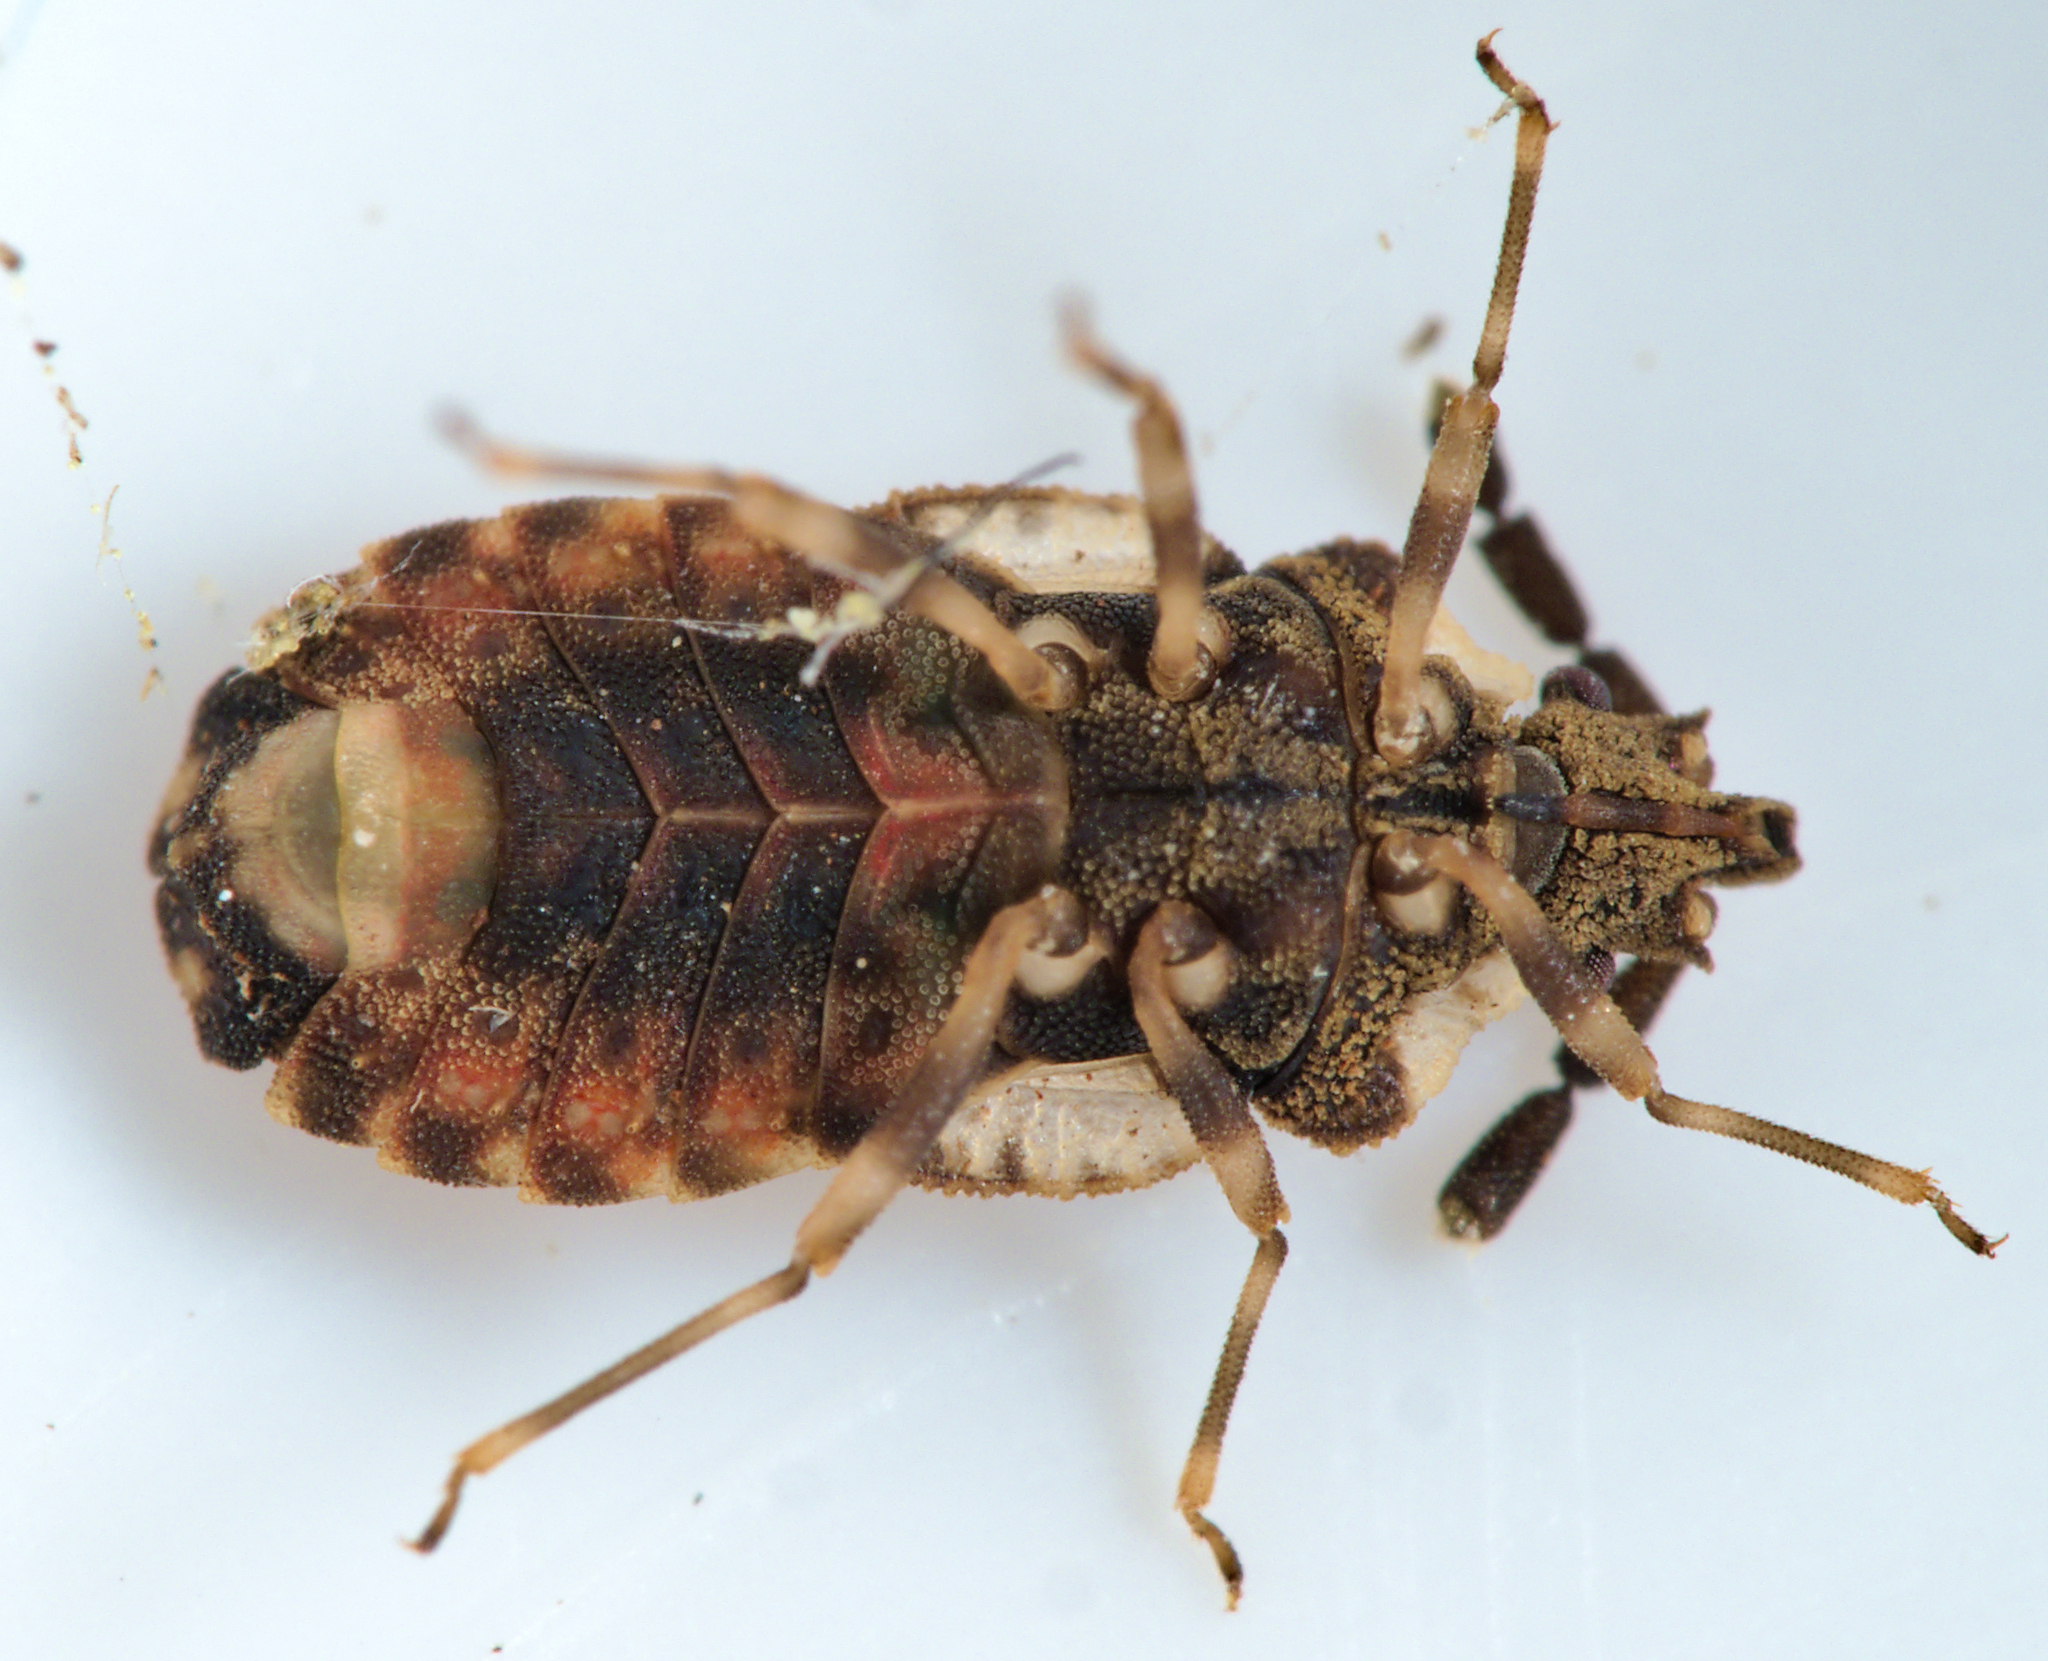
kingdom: Animalia
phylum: Arthropoda
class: Insecta
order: Hemiptera
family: Aradidae
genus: Aradus
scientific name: Aradus depressus
